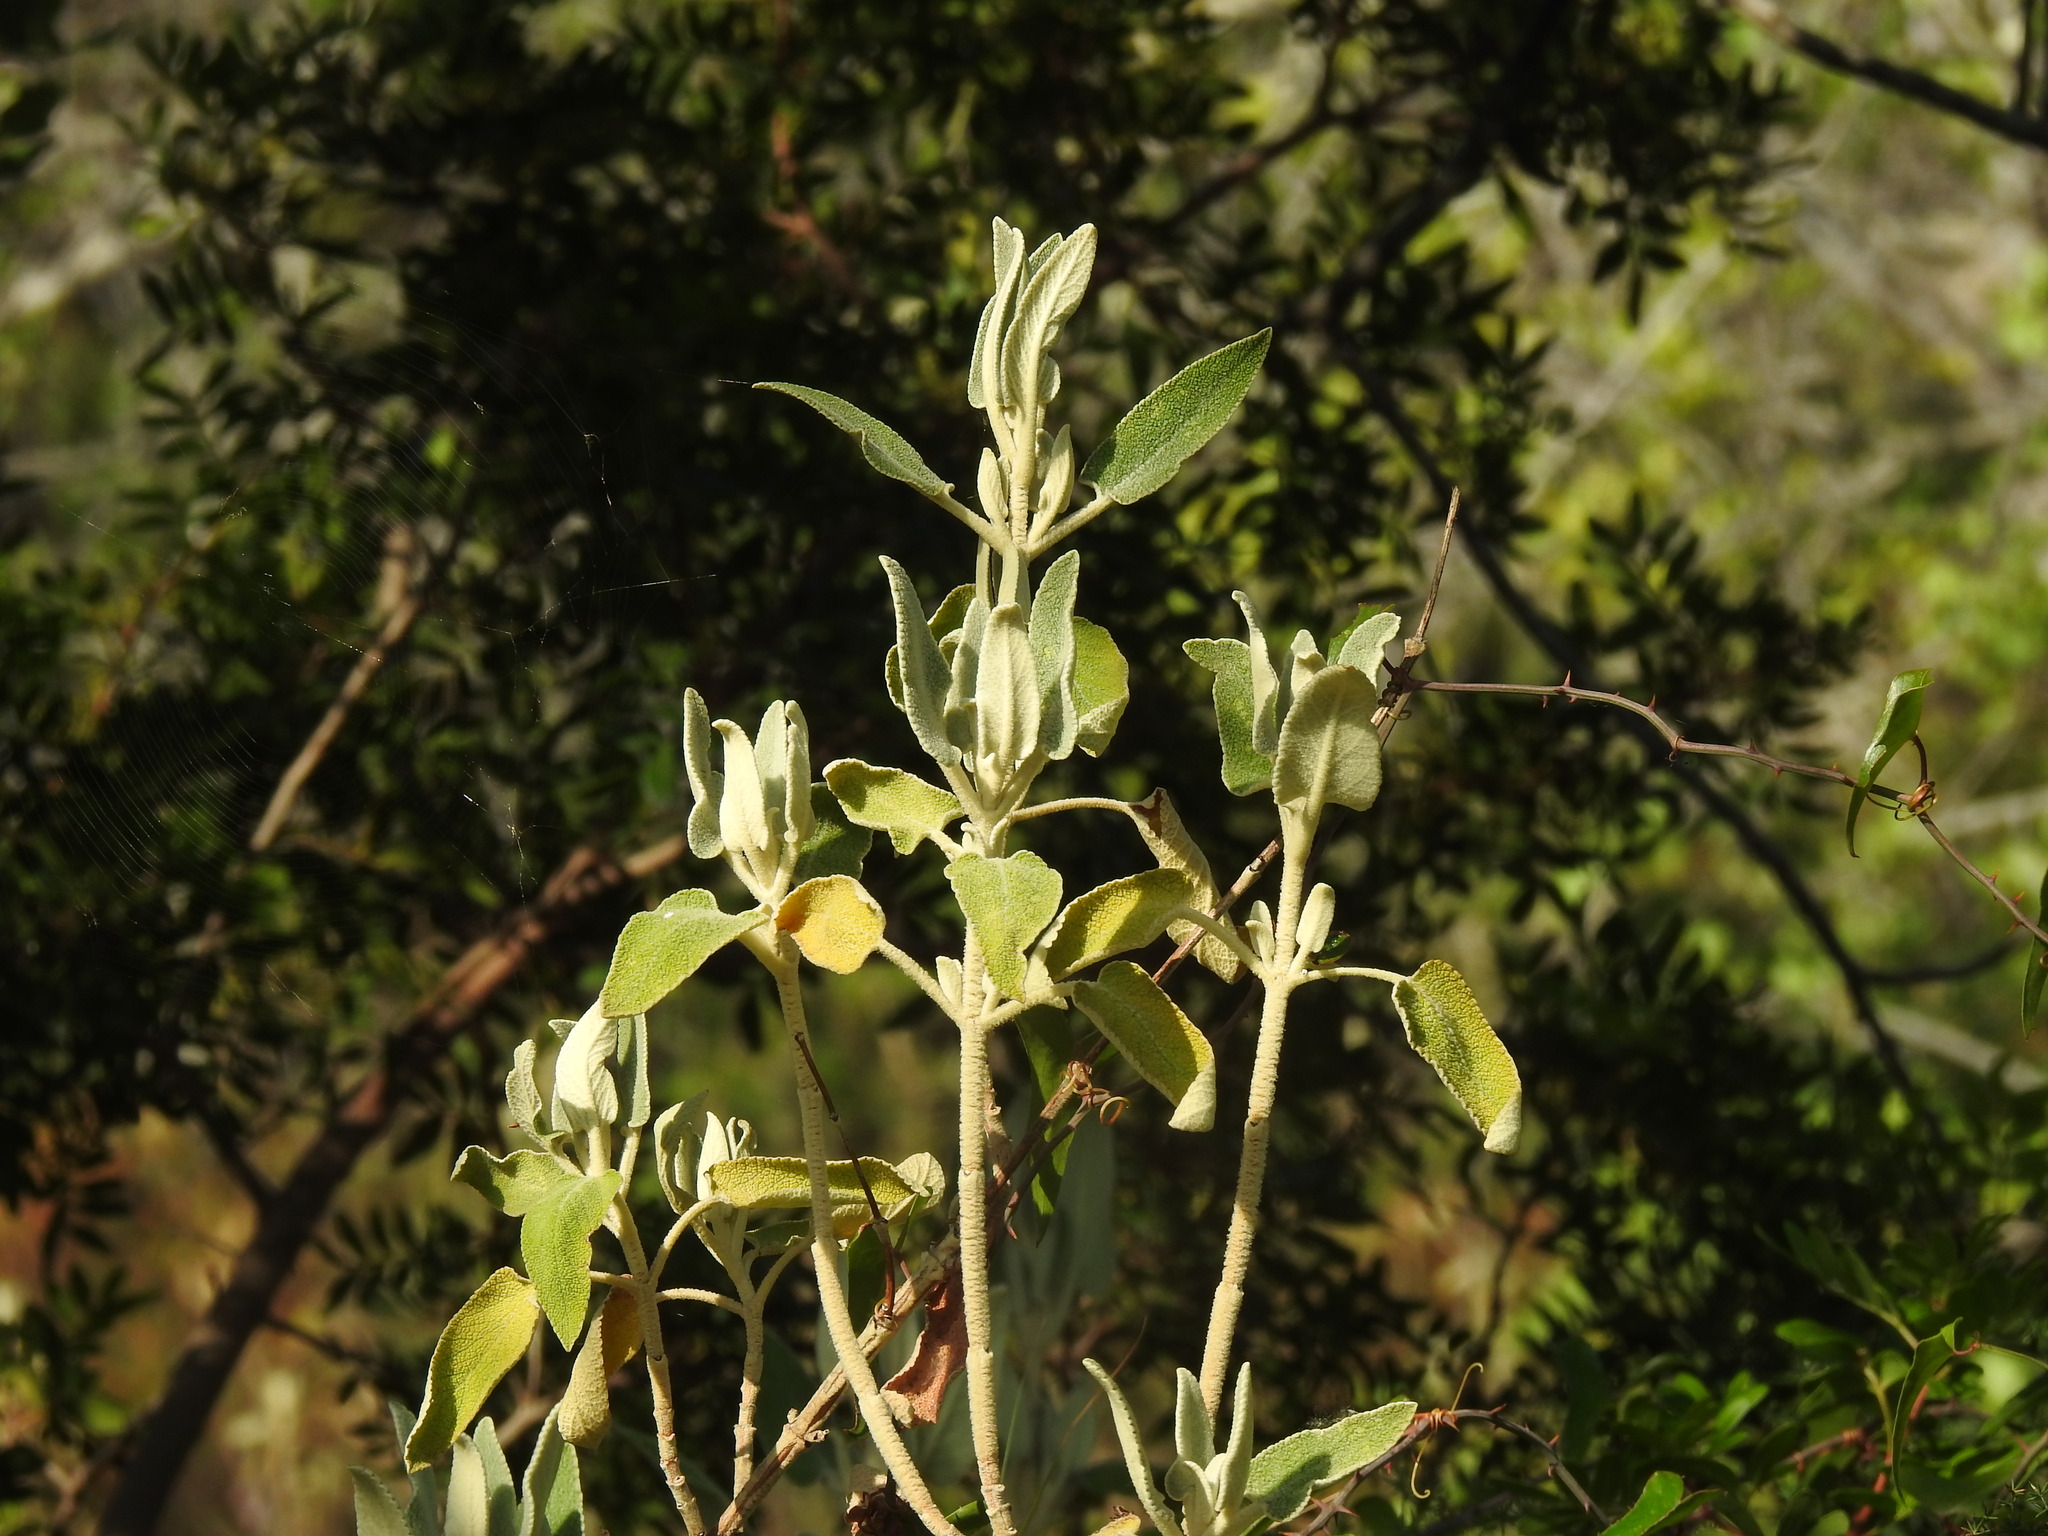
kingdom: Plantae
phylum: Tracheophyta
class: Magnoliopsida
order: Lamiales
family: Lamiaceae
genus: Phlomis
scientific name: Phlomis purpurea
